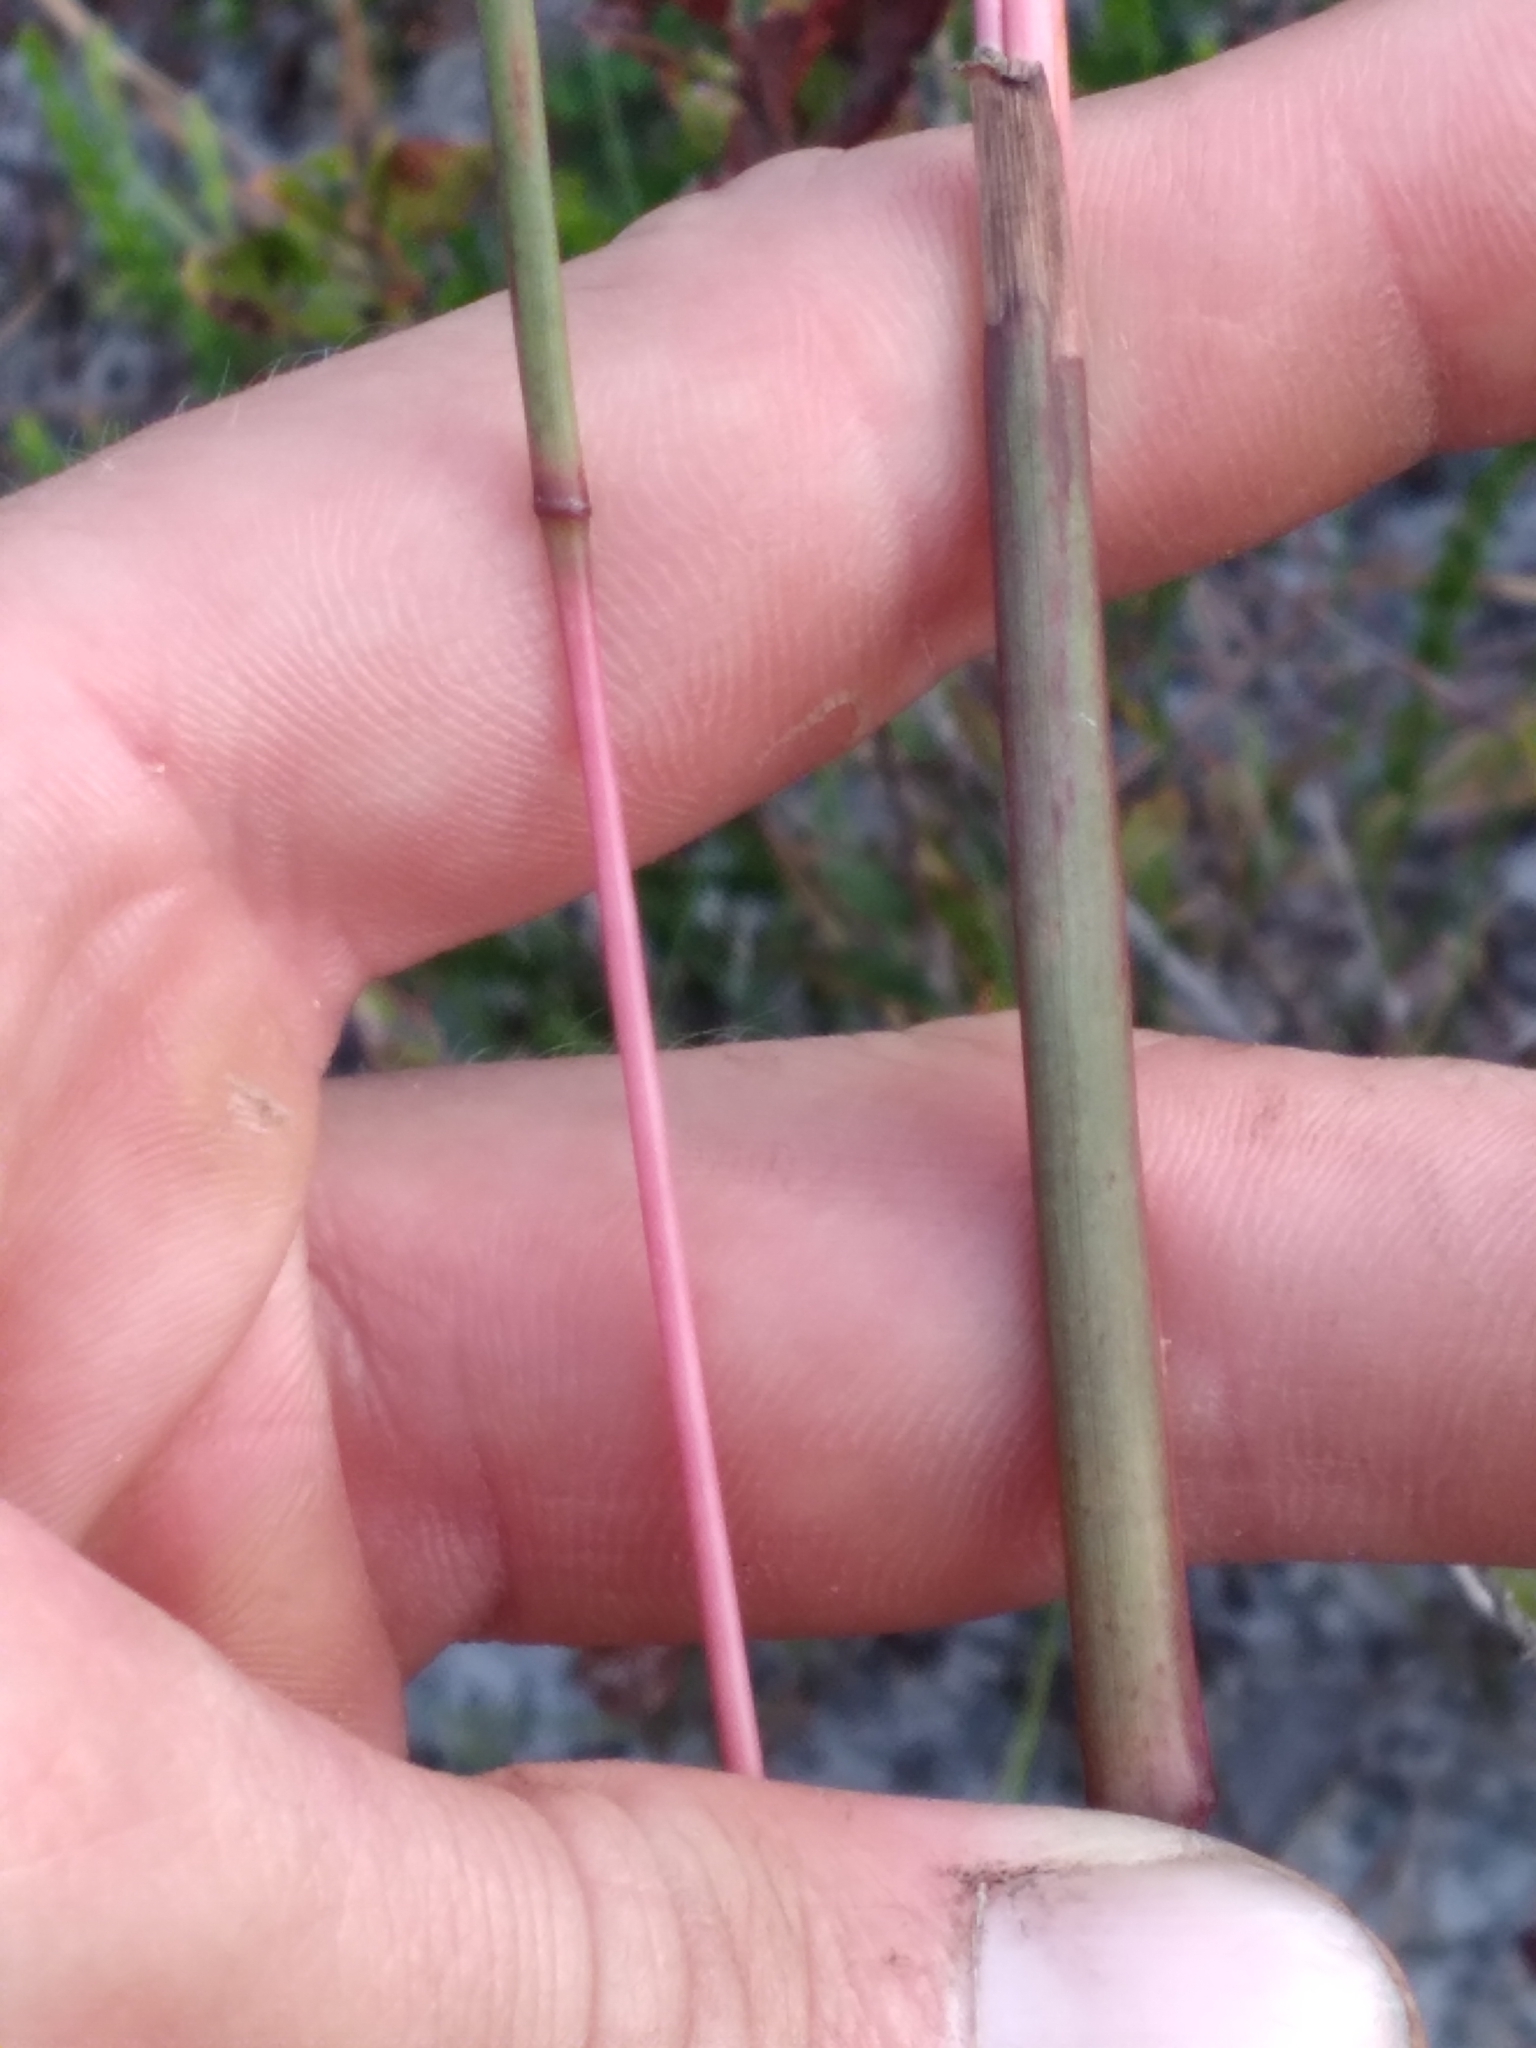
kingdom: Plantae
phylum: Tracheophyta
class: Liliopsida
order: Poales
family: Poaceae
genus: Andropogon
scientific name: Andropogon cabanisii
